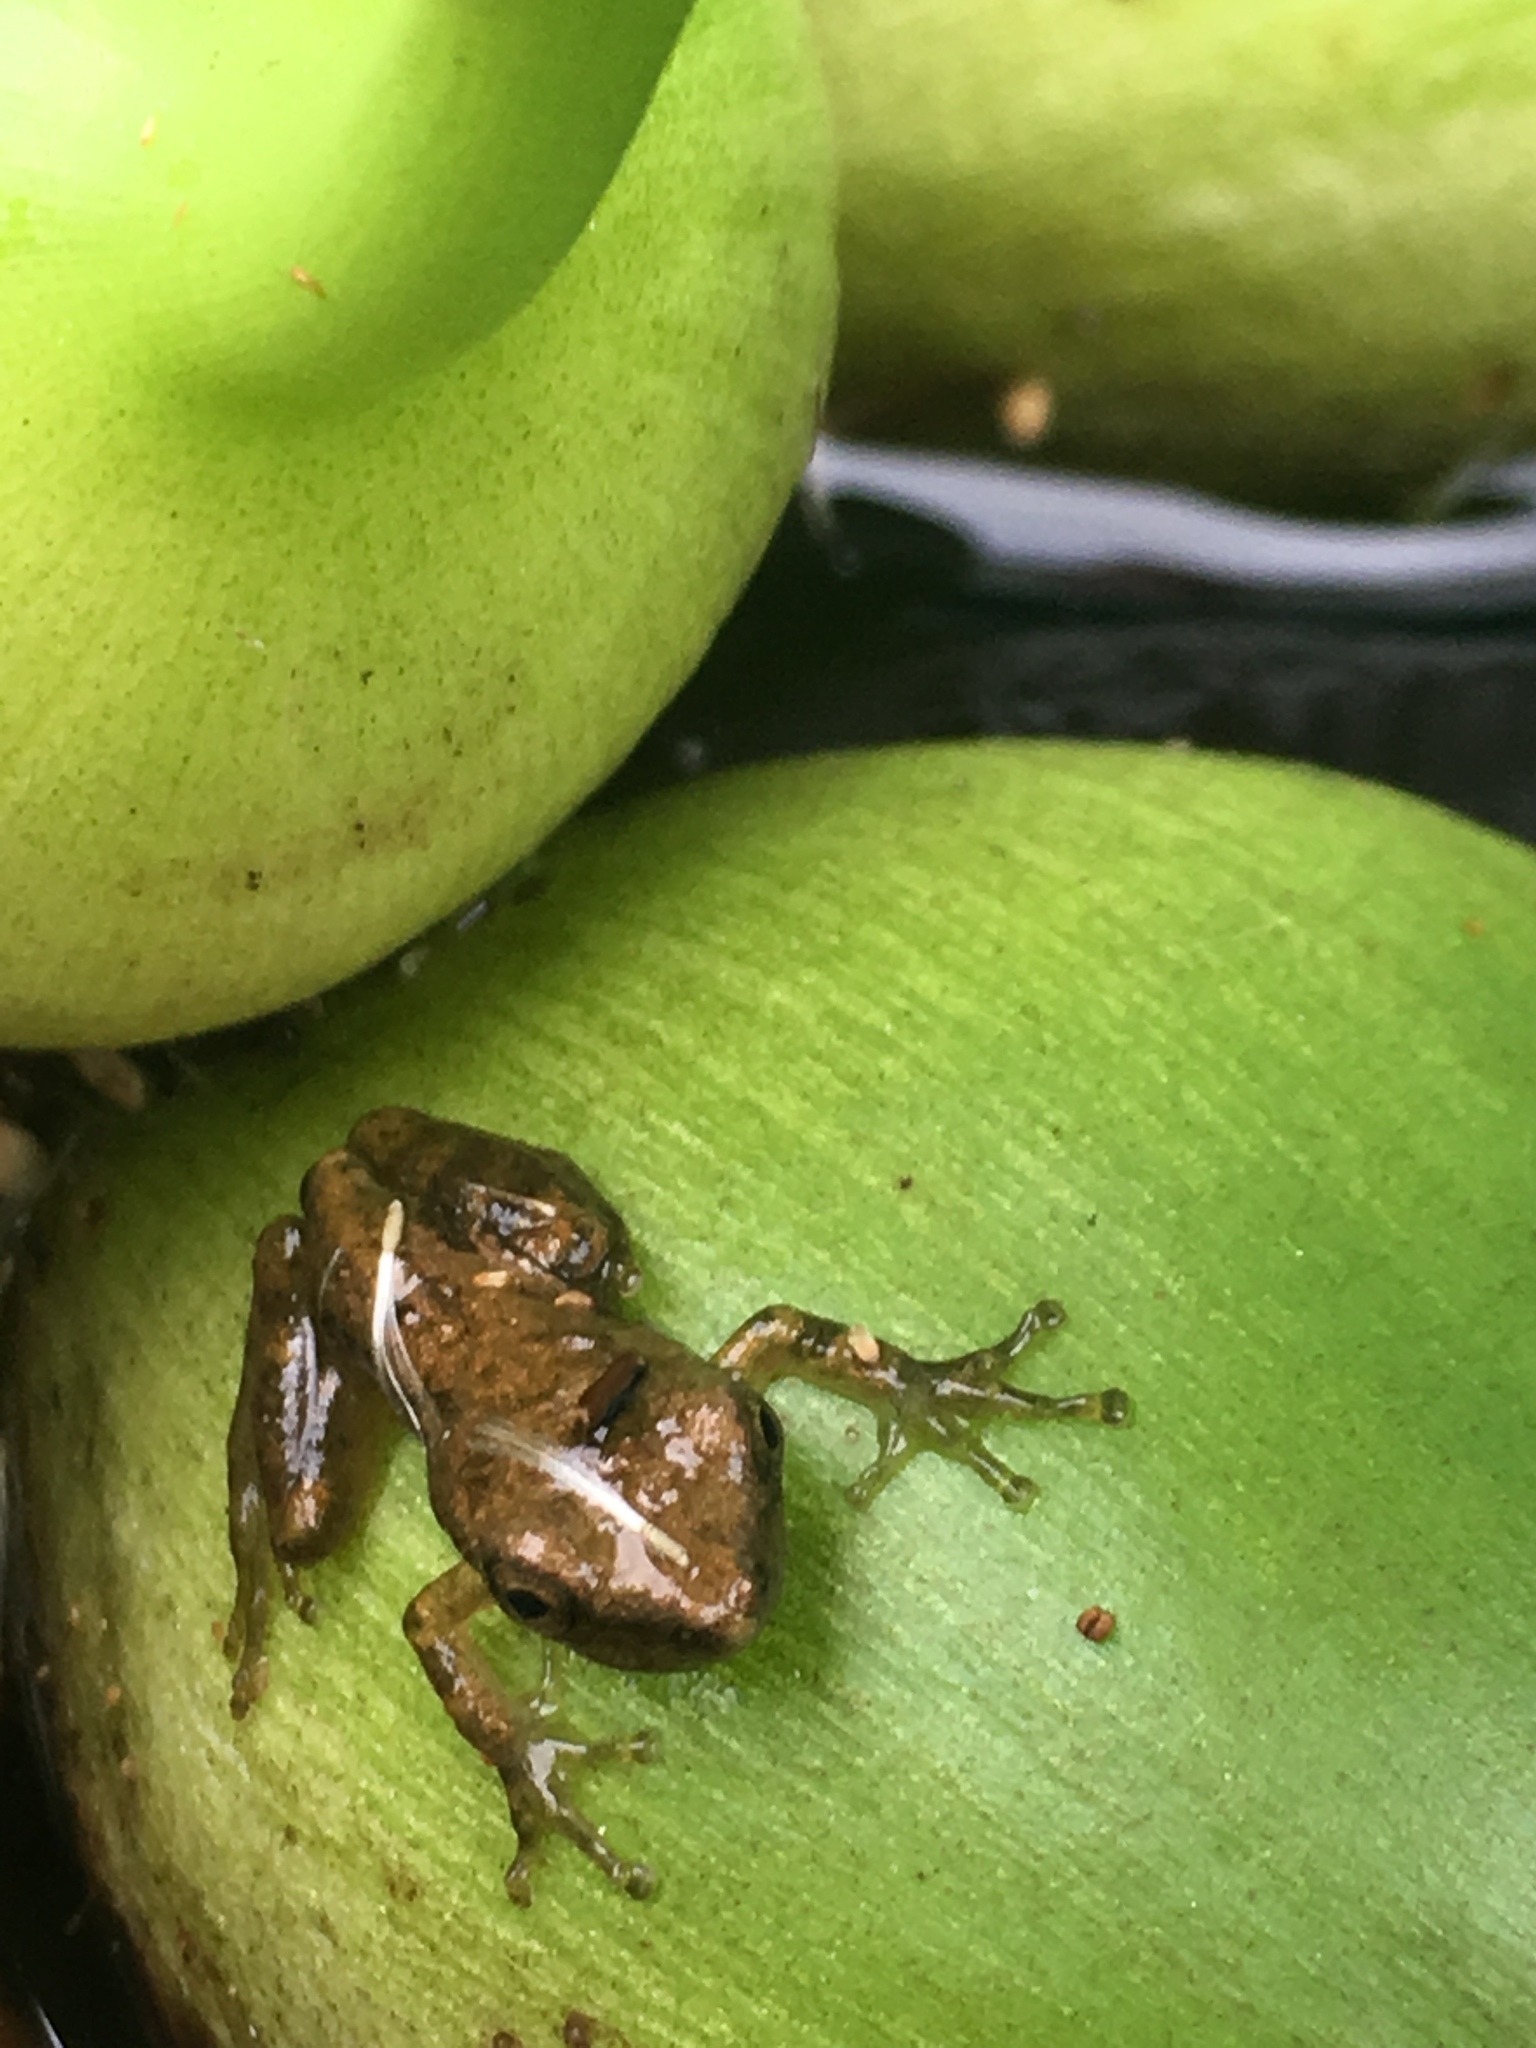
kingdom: Animalia
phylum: Chordata
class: Amphibia
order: Anura
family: Hylidae
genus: Scinax
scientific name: Scinax granulatus
